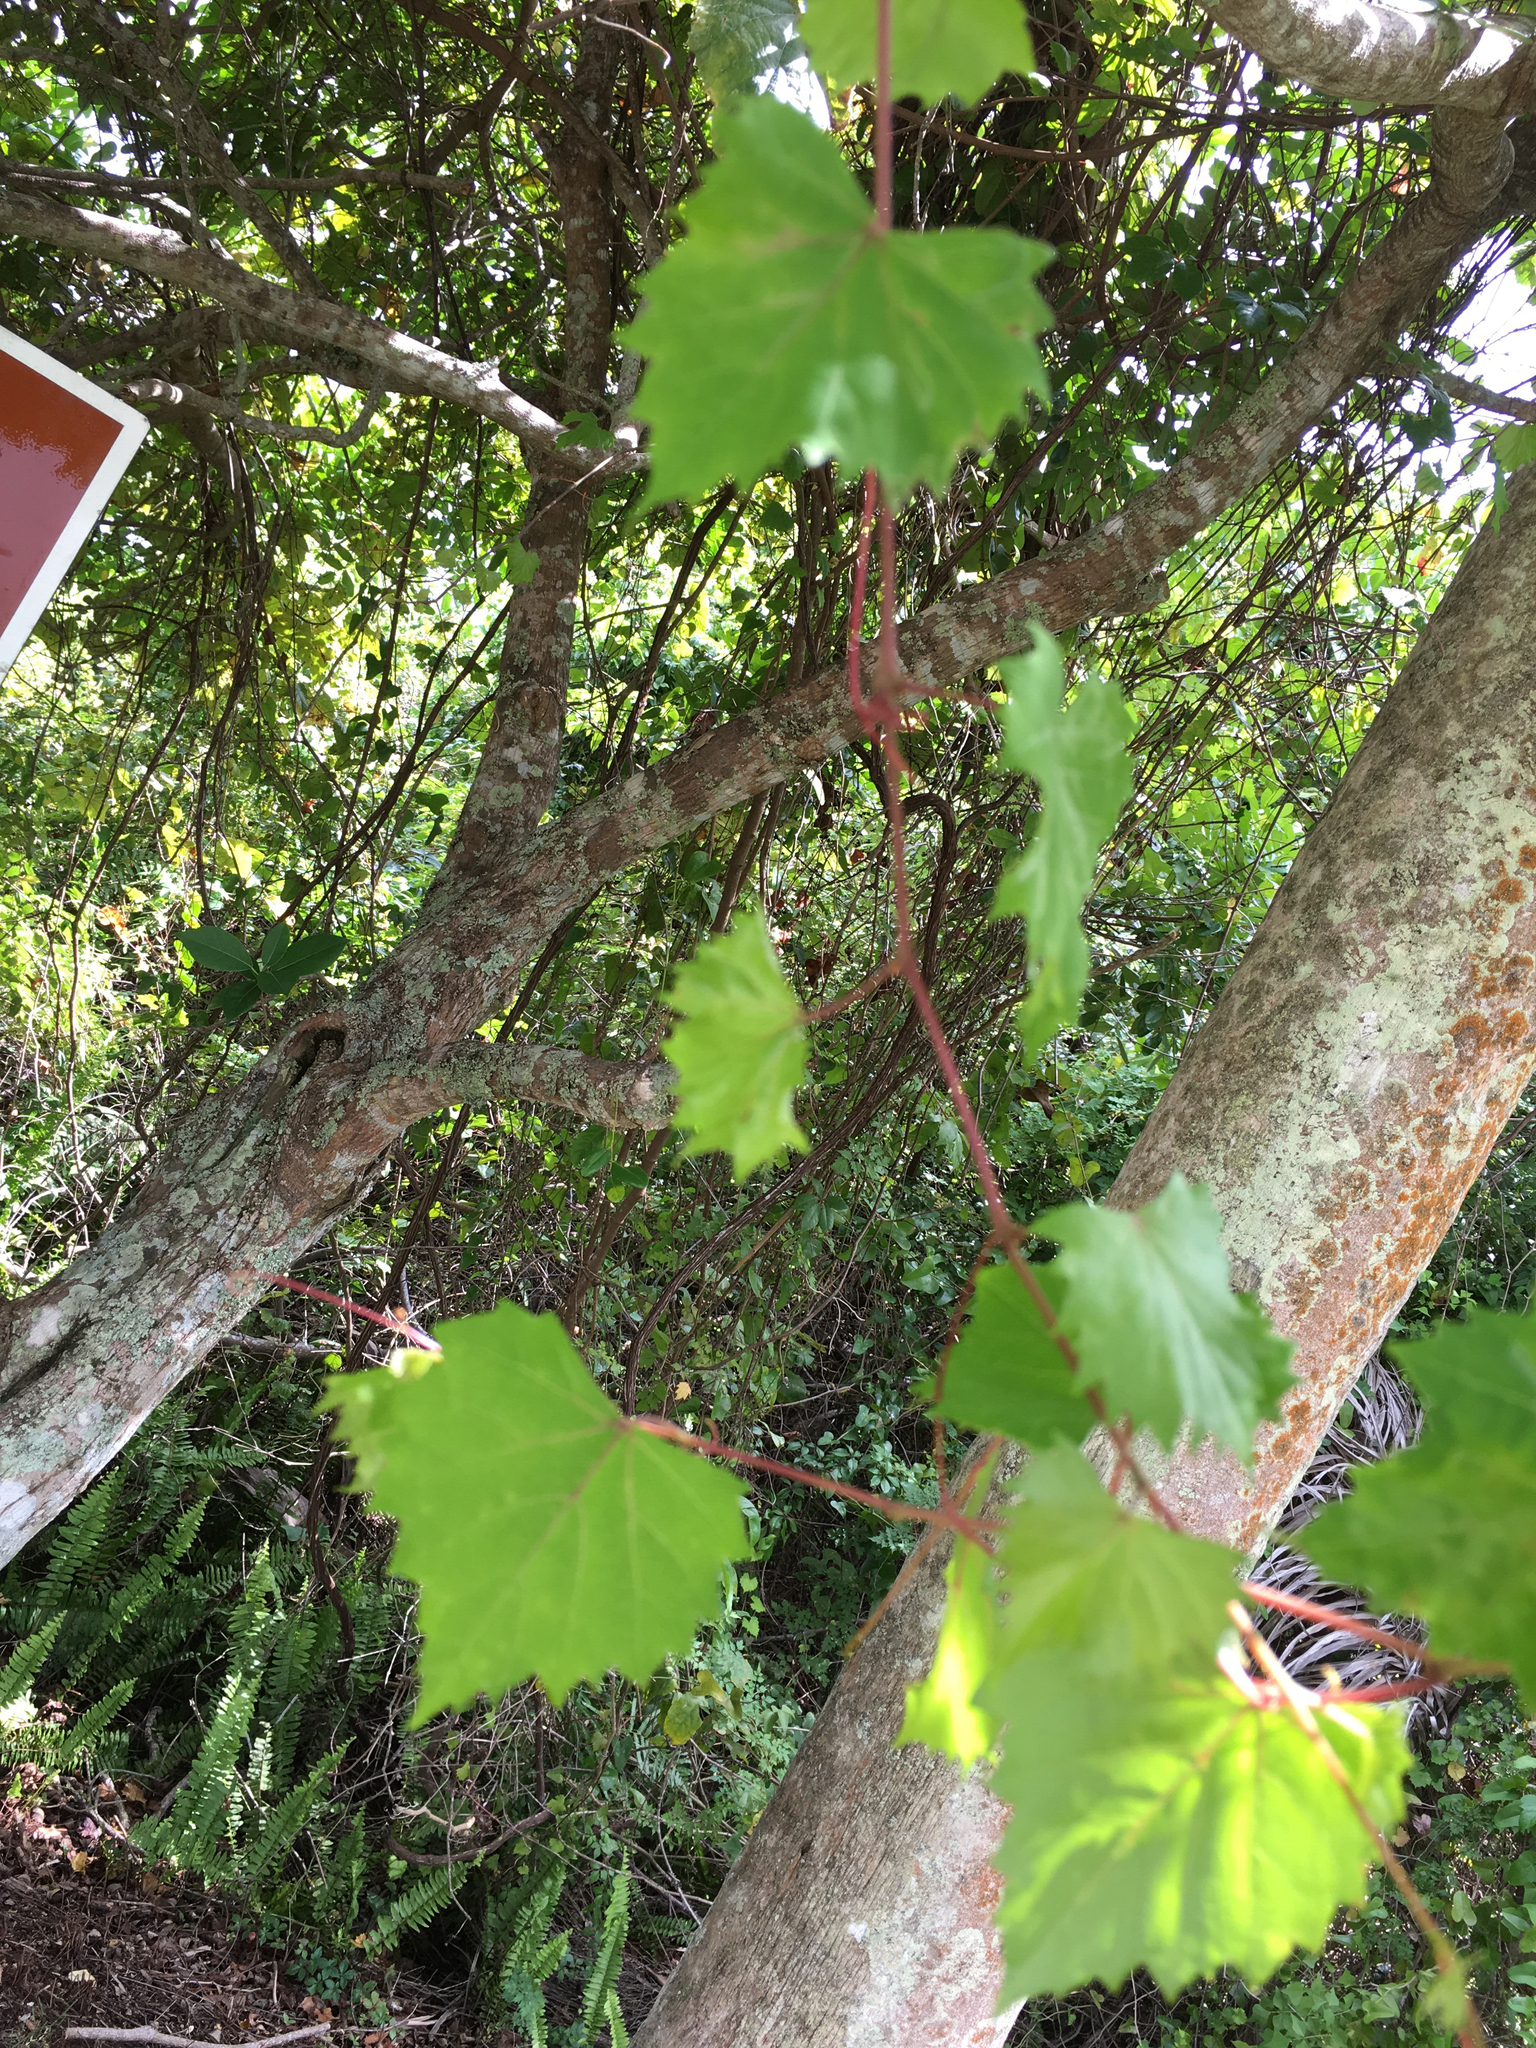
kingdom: Plantae
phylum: Tracheophyta
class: Magnoliopsida
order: Vitales
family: Vitaceae
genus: Vitis
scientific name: Vitis rotundifolia
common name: Muscadine grape
